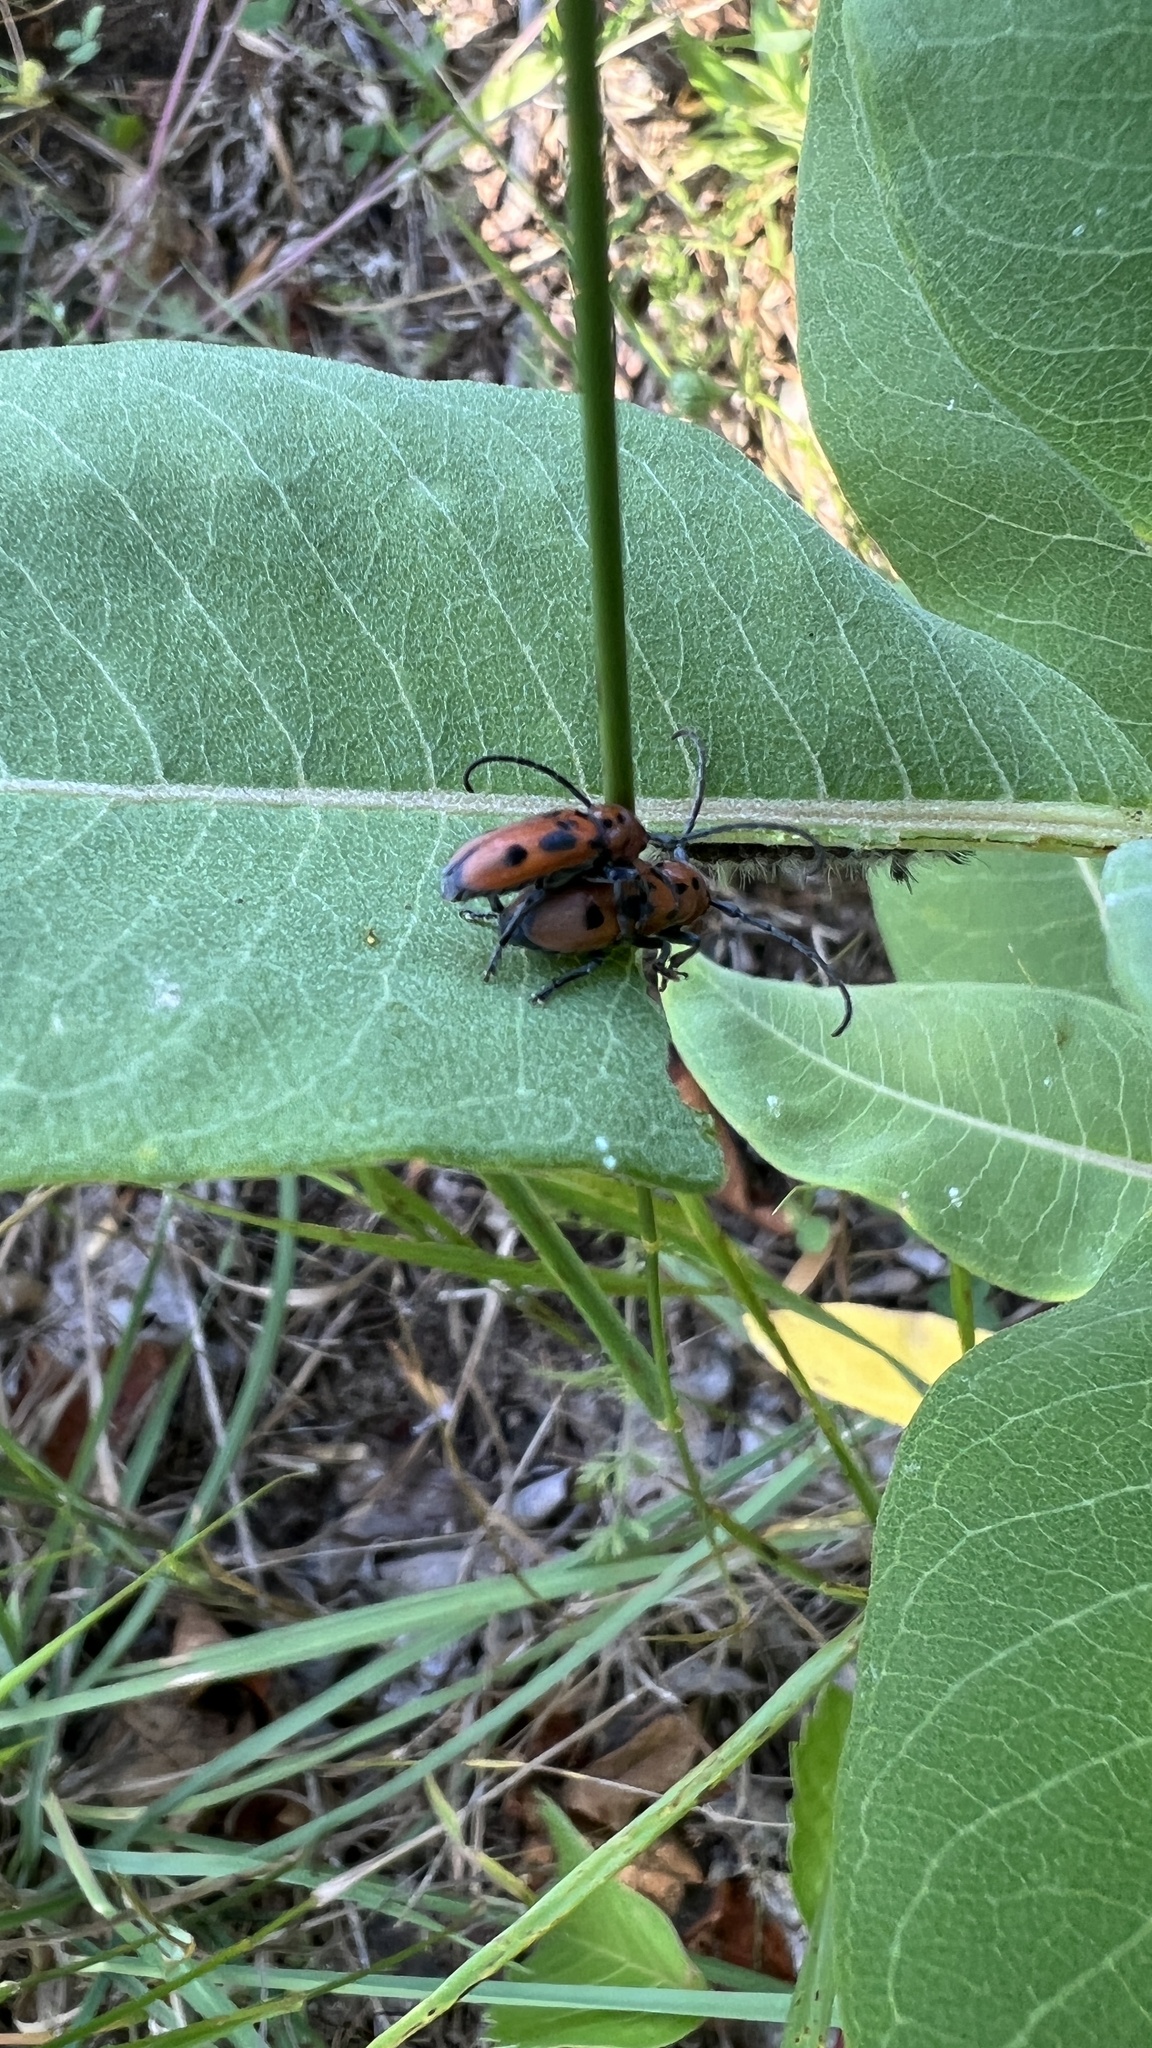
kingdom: Animalia
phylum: Arthropoda
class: Insecta
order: Coleoptera
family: Cerambycidae
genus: Tetraopes
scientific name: Tetraopes tetrophthalmus
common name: Red milkweed beetle
